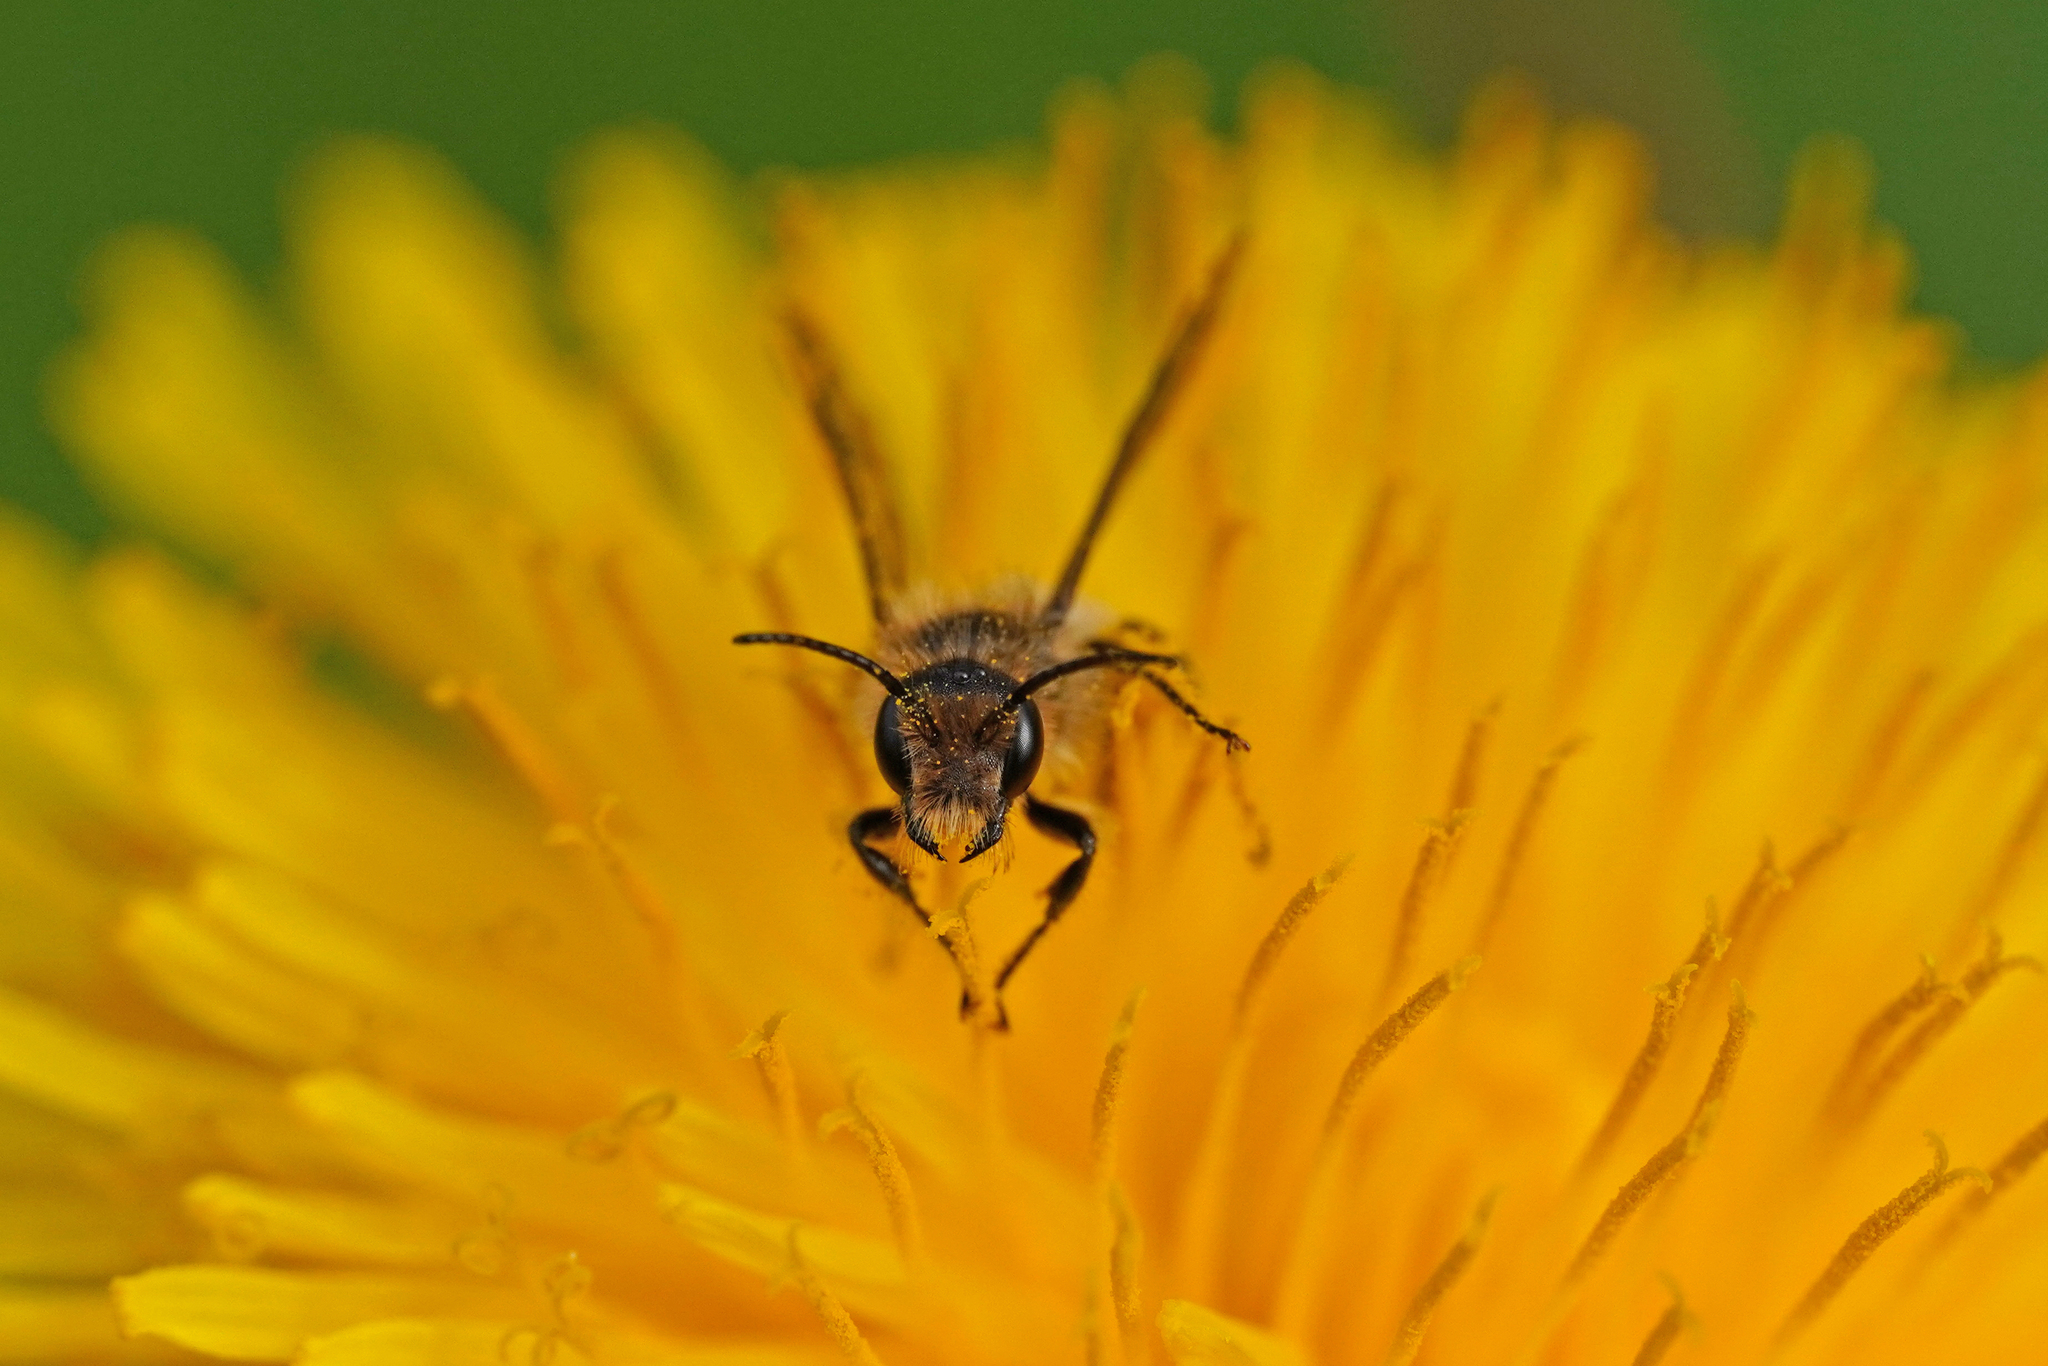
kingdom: Animalia
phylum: Arthropoda
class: Insecta
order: Hymenoptera
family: Megachilidae
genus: Chelostoma
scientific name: Chelostoma florisomne
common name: Sleepy carpenter bee
